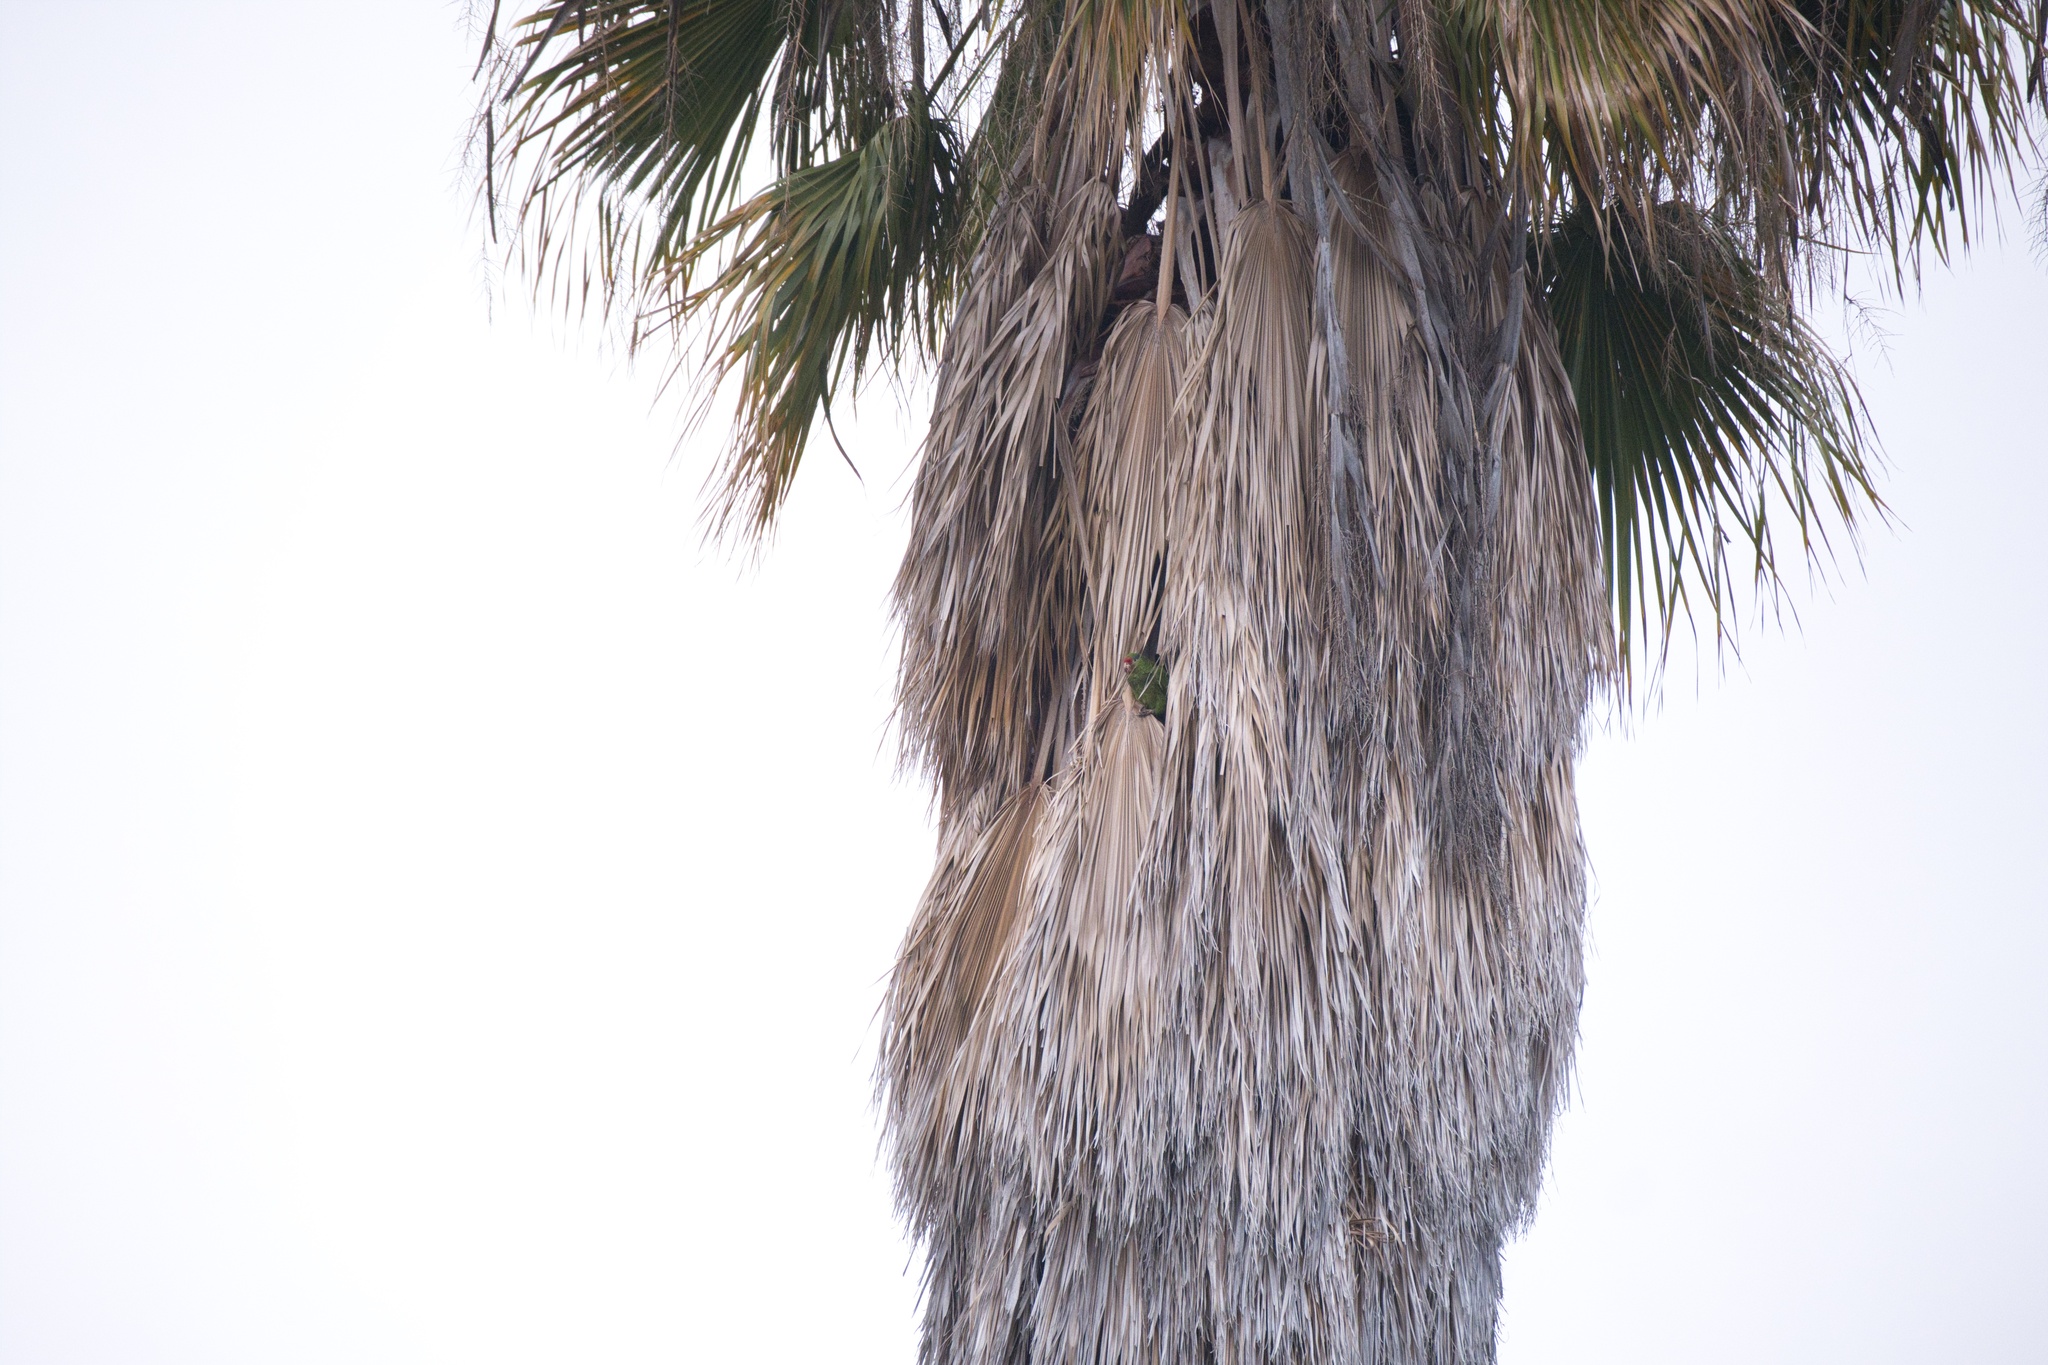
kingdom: Animalia
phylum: Chordata
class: Aves
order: Psittaciformes
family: Psittacidae
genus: Amazona
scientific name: Amazona viridigenalis
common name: Red-crowned amazon
